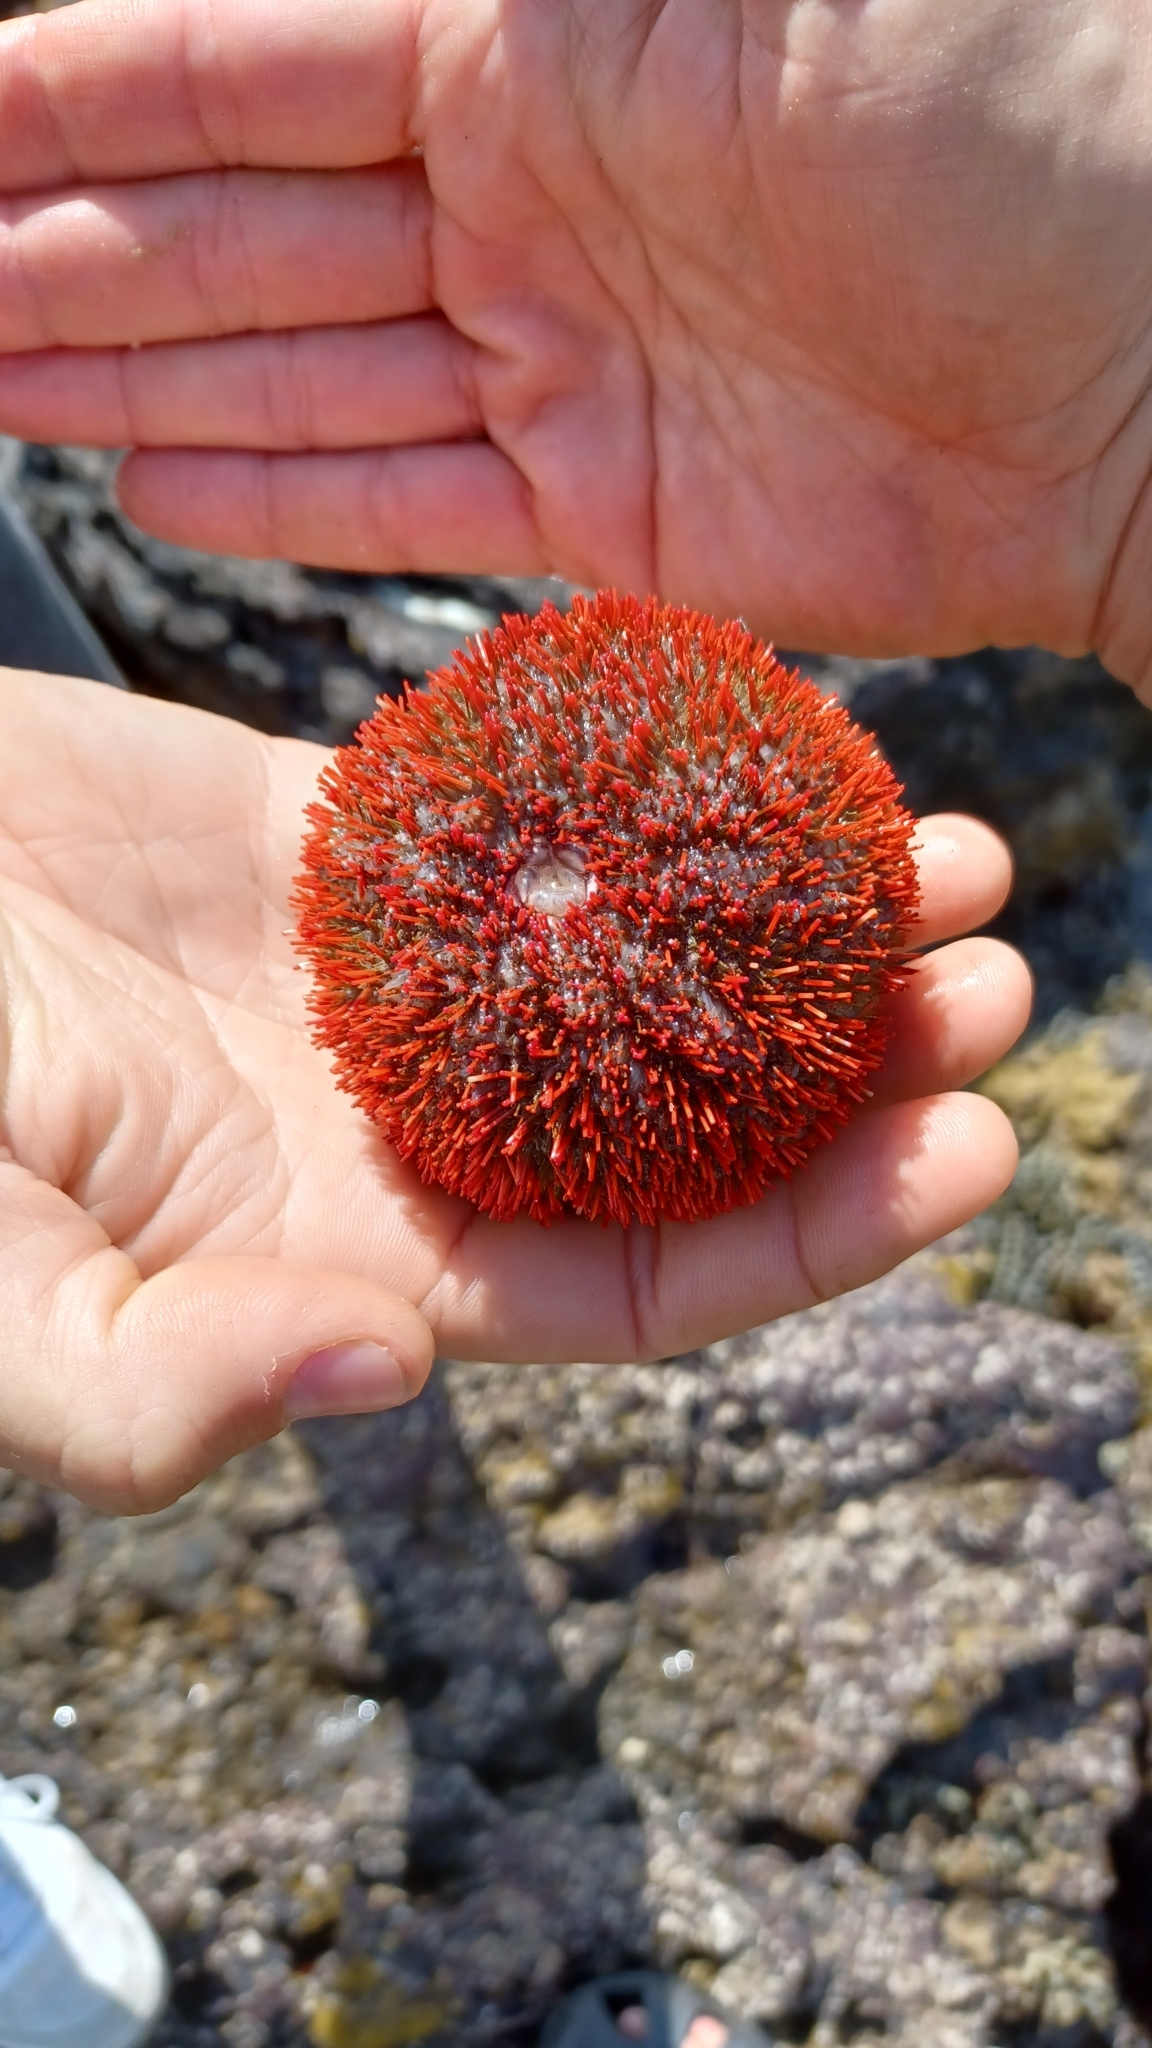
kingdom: Animalia
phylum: Echinodermata
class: Echinoidea
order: Camarodonta
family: Temnopleuridae
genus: Holopneustes
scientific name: Holopneustes porosissimus
